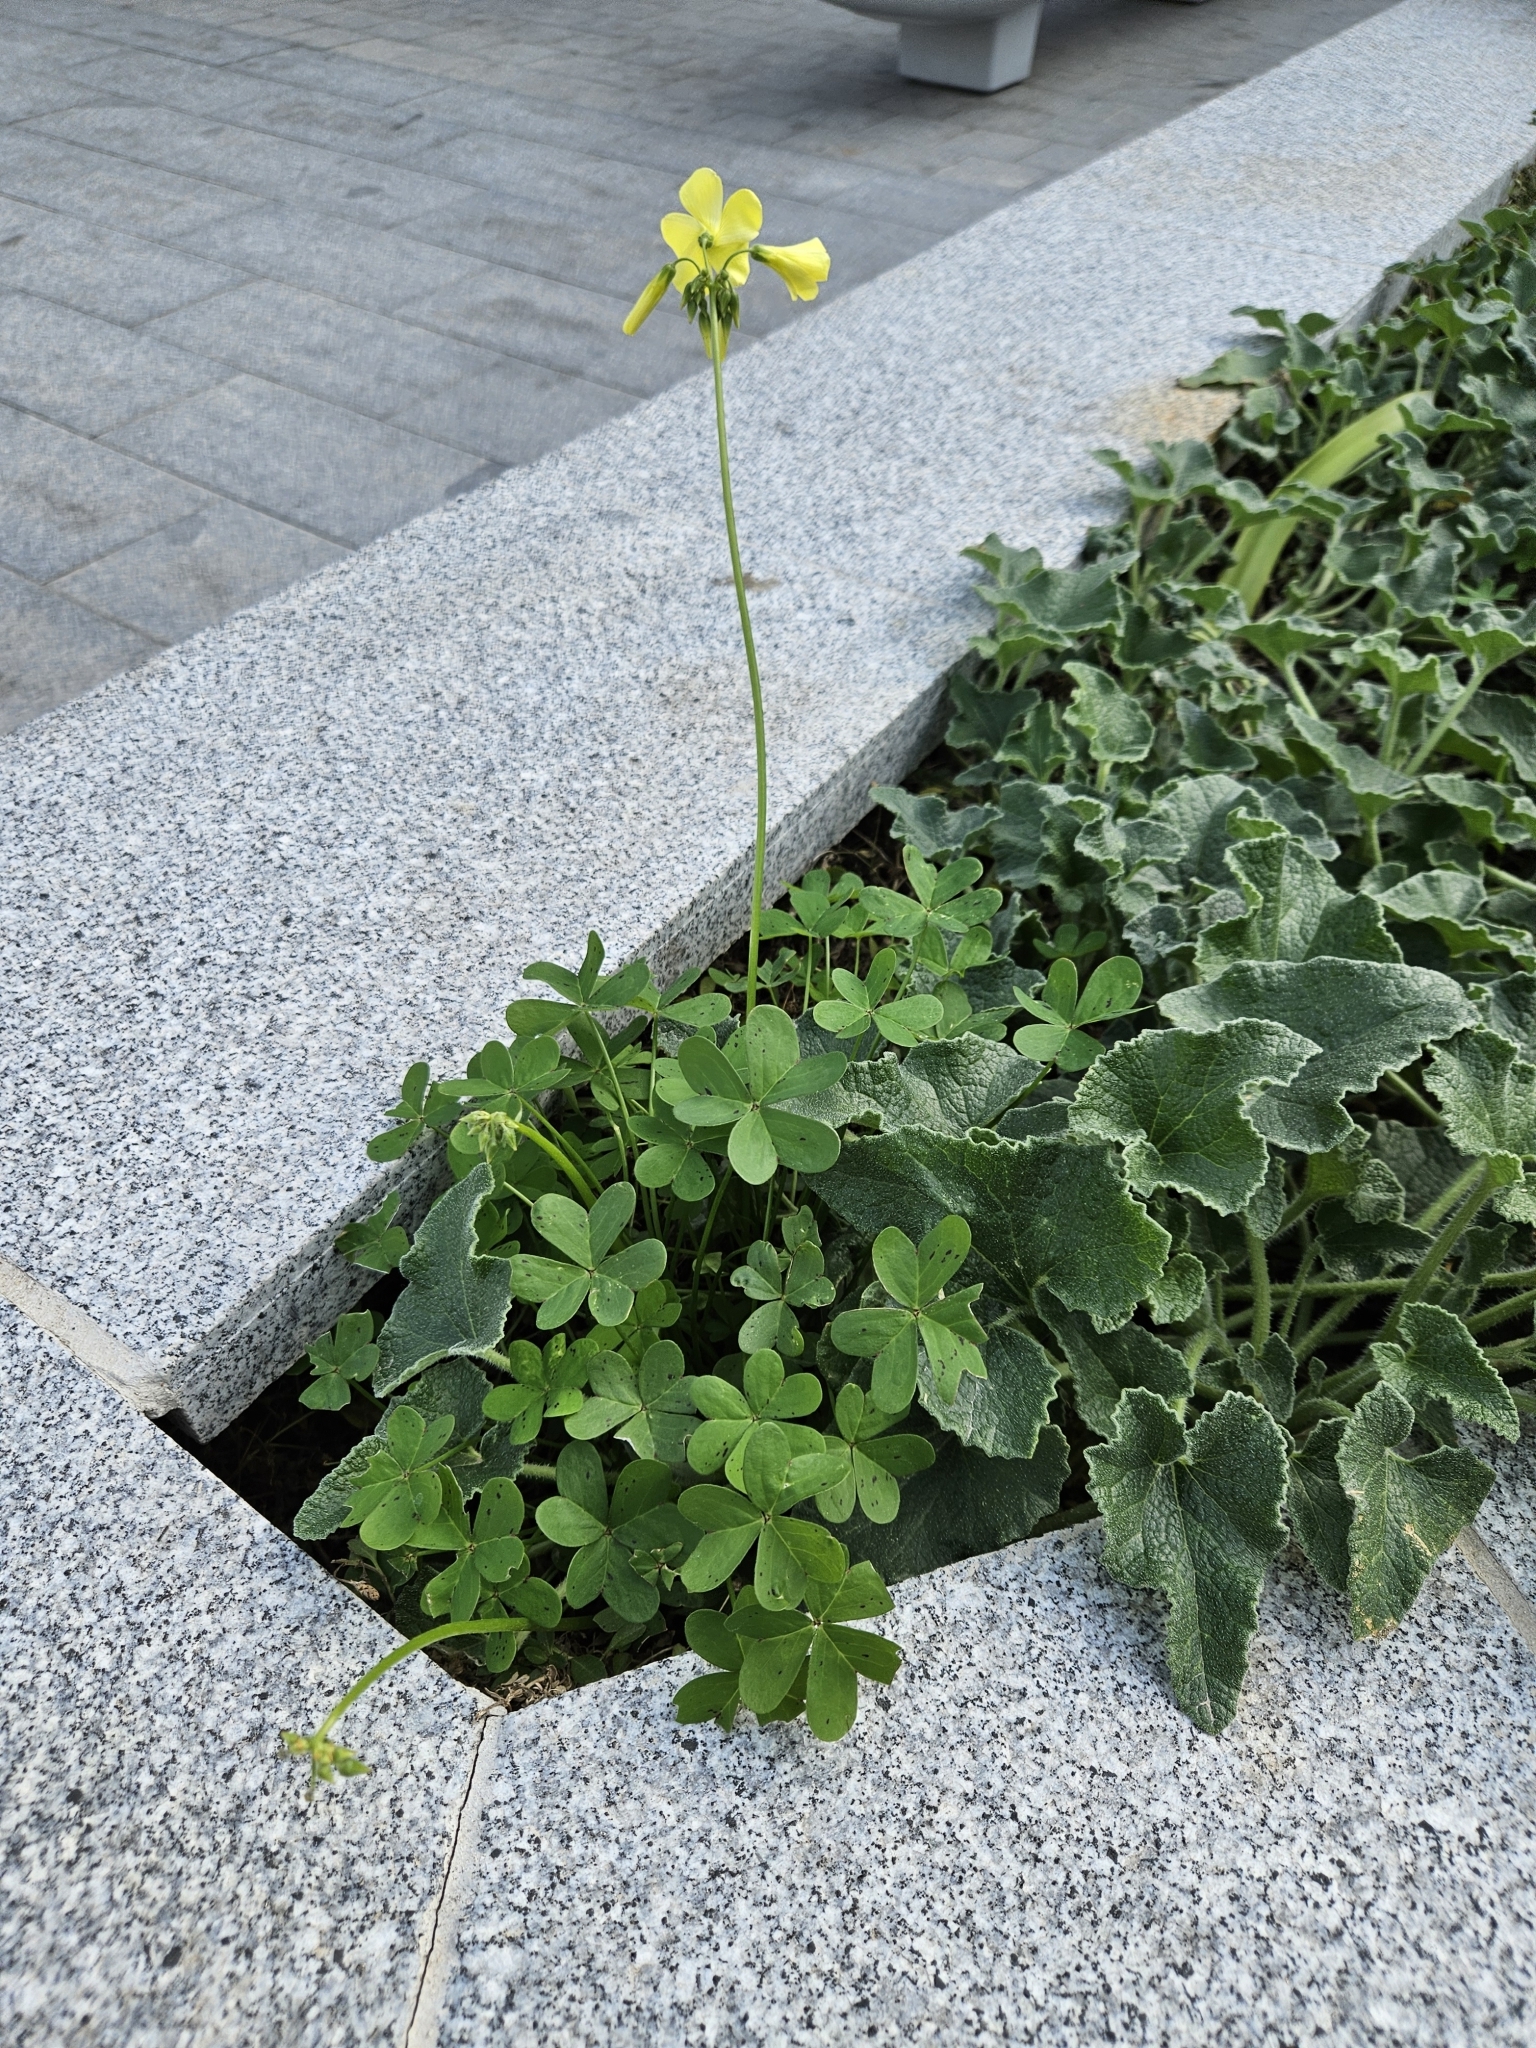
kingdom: Plantae
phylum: Tracheophyta
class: Magnoliopsida
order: Oxalidales
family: Oxalidaceae
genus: Oxalis
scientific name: Oxalis pes-caprae
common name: Bermuda-buttercup
